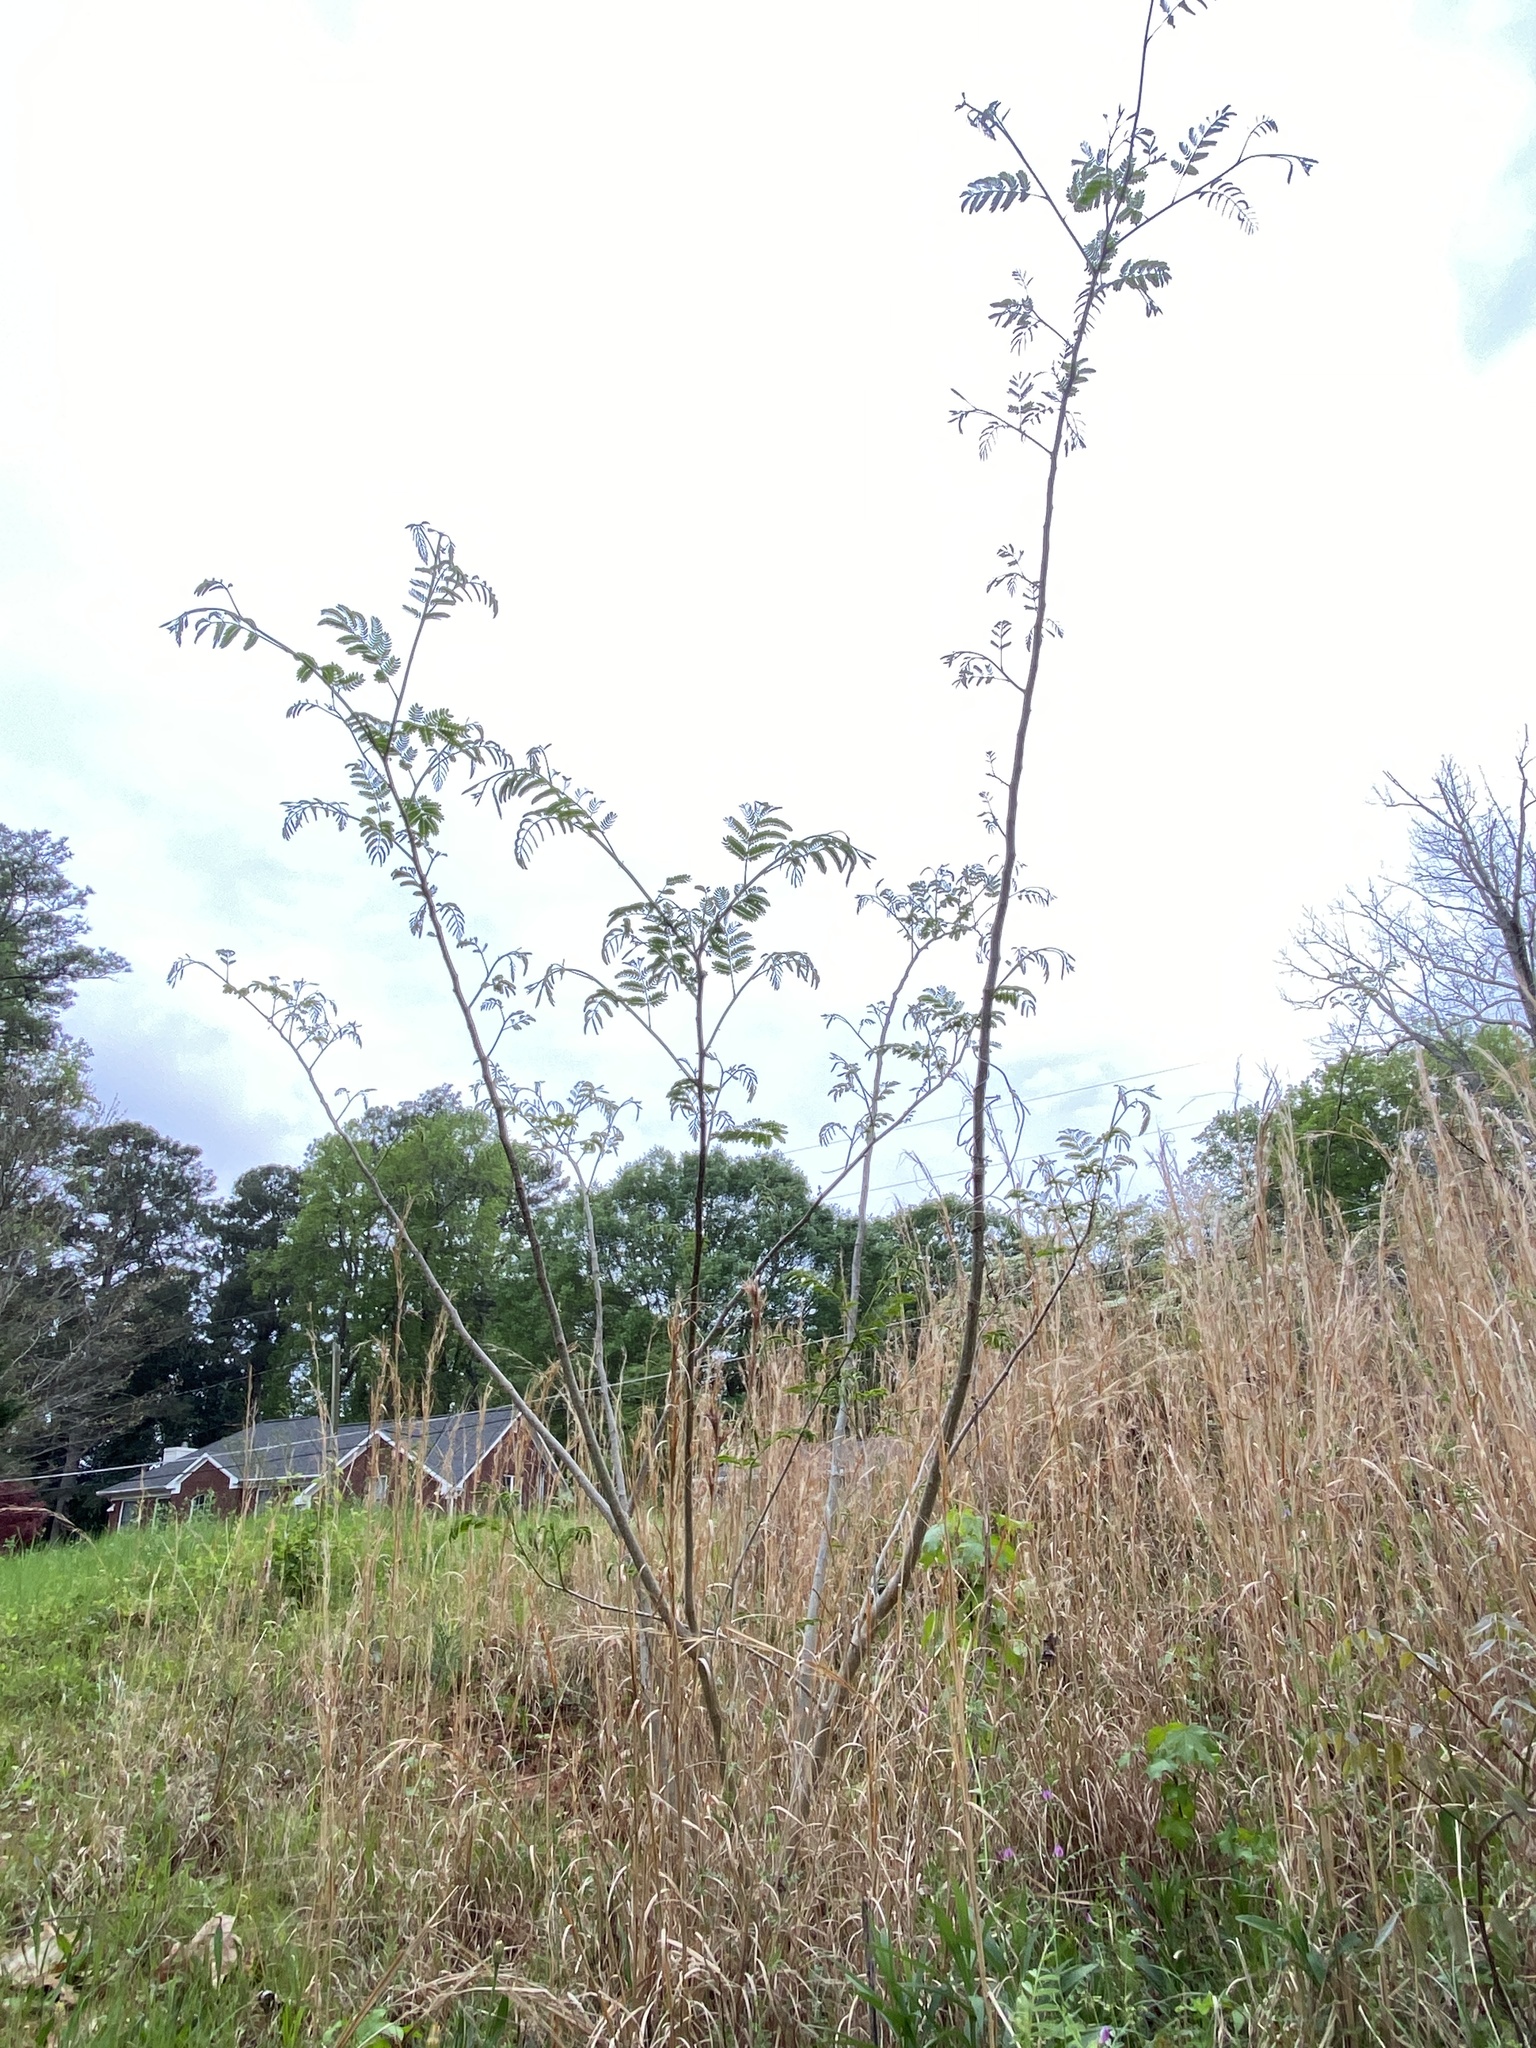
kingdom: Plantae
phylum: Tracheophyta
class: Magnoliopsida
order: Fabales
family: Fabaceae
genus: Albizia
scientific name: Albizia julibrissin
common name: Silktree
